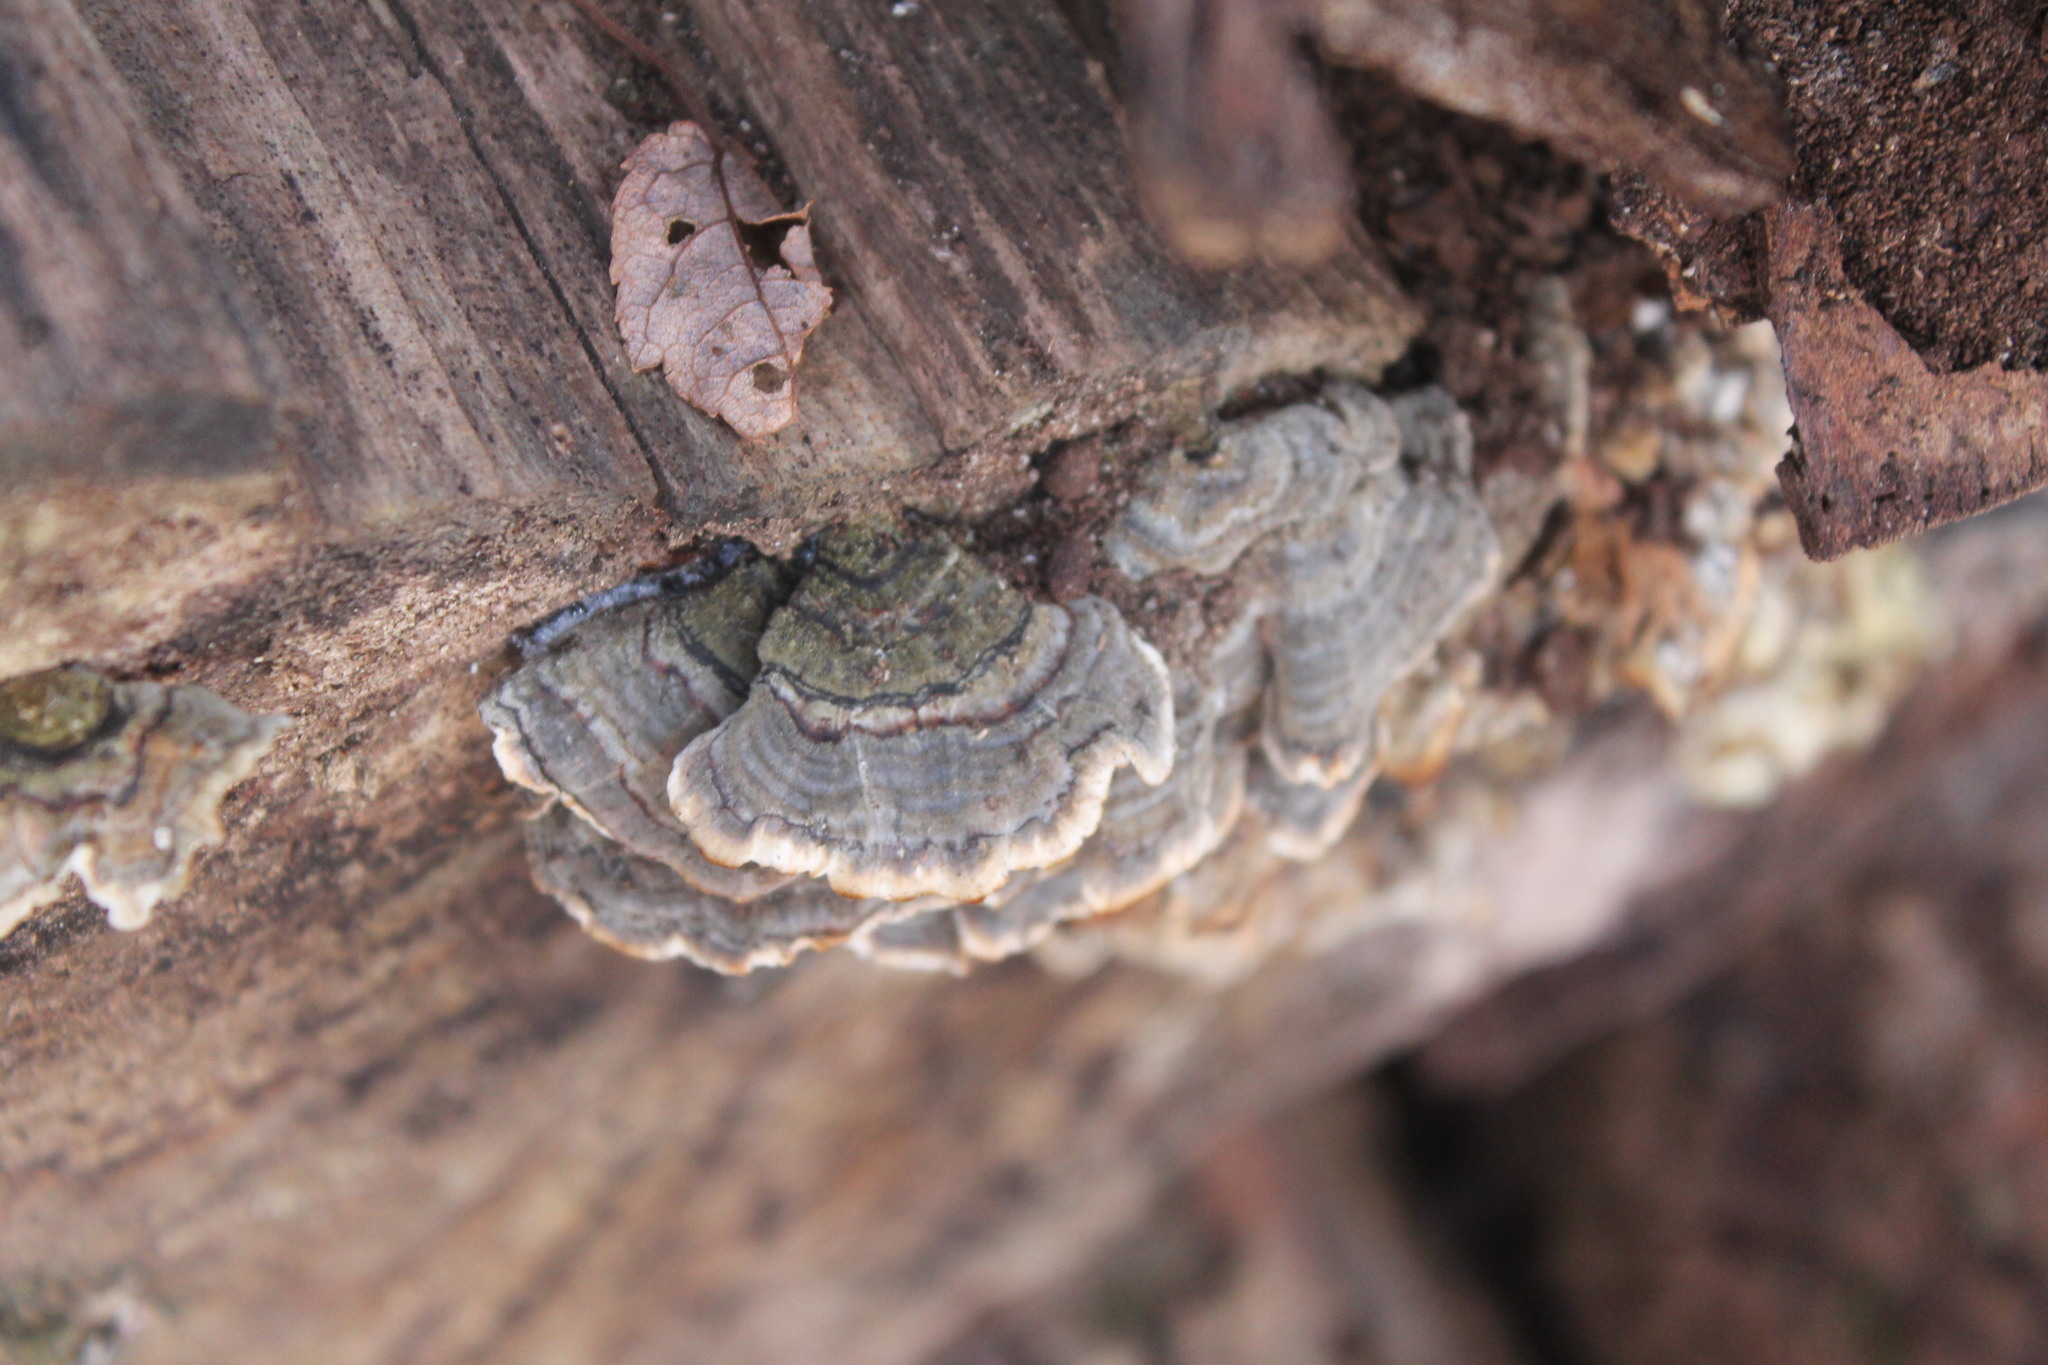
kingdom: Fungi
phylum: Basidiomycota
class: Agaricomycetes
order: Polyporales
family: Polyporaceae
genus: Trametes
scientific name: Trametes versicolor
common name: Turkeytail
